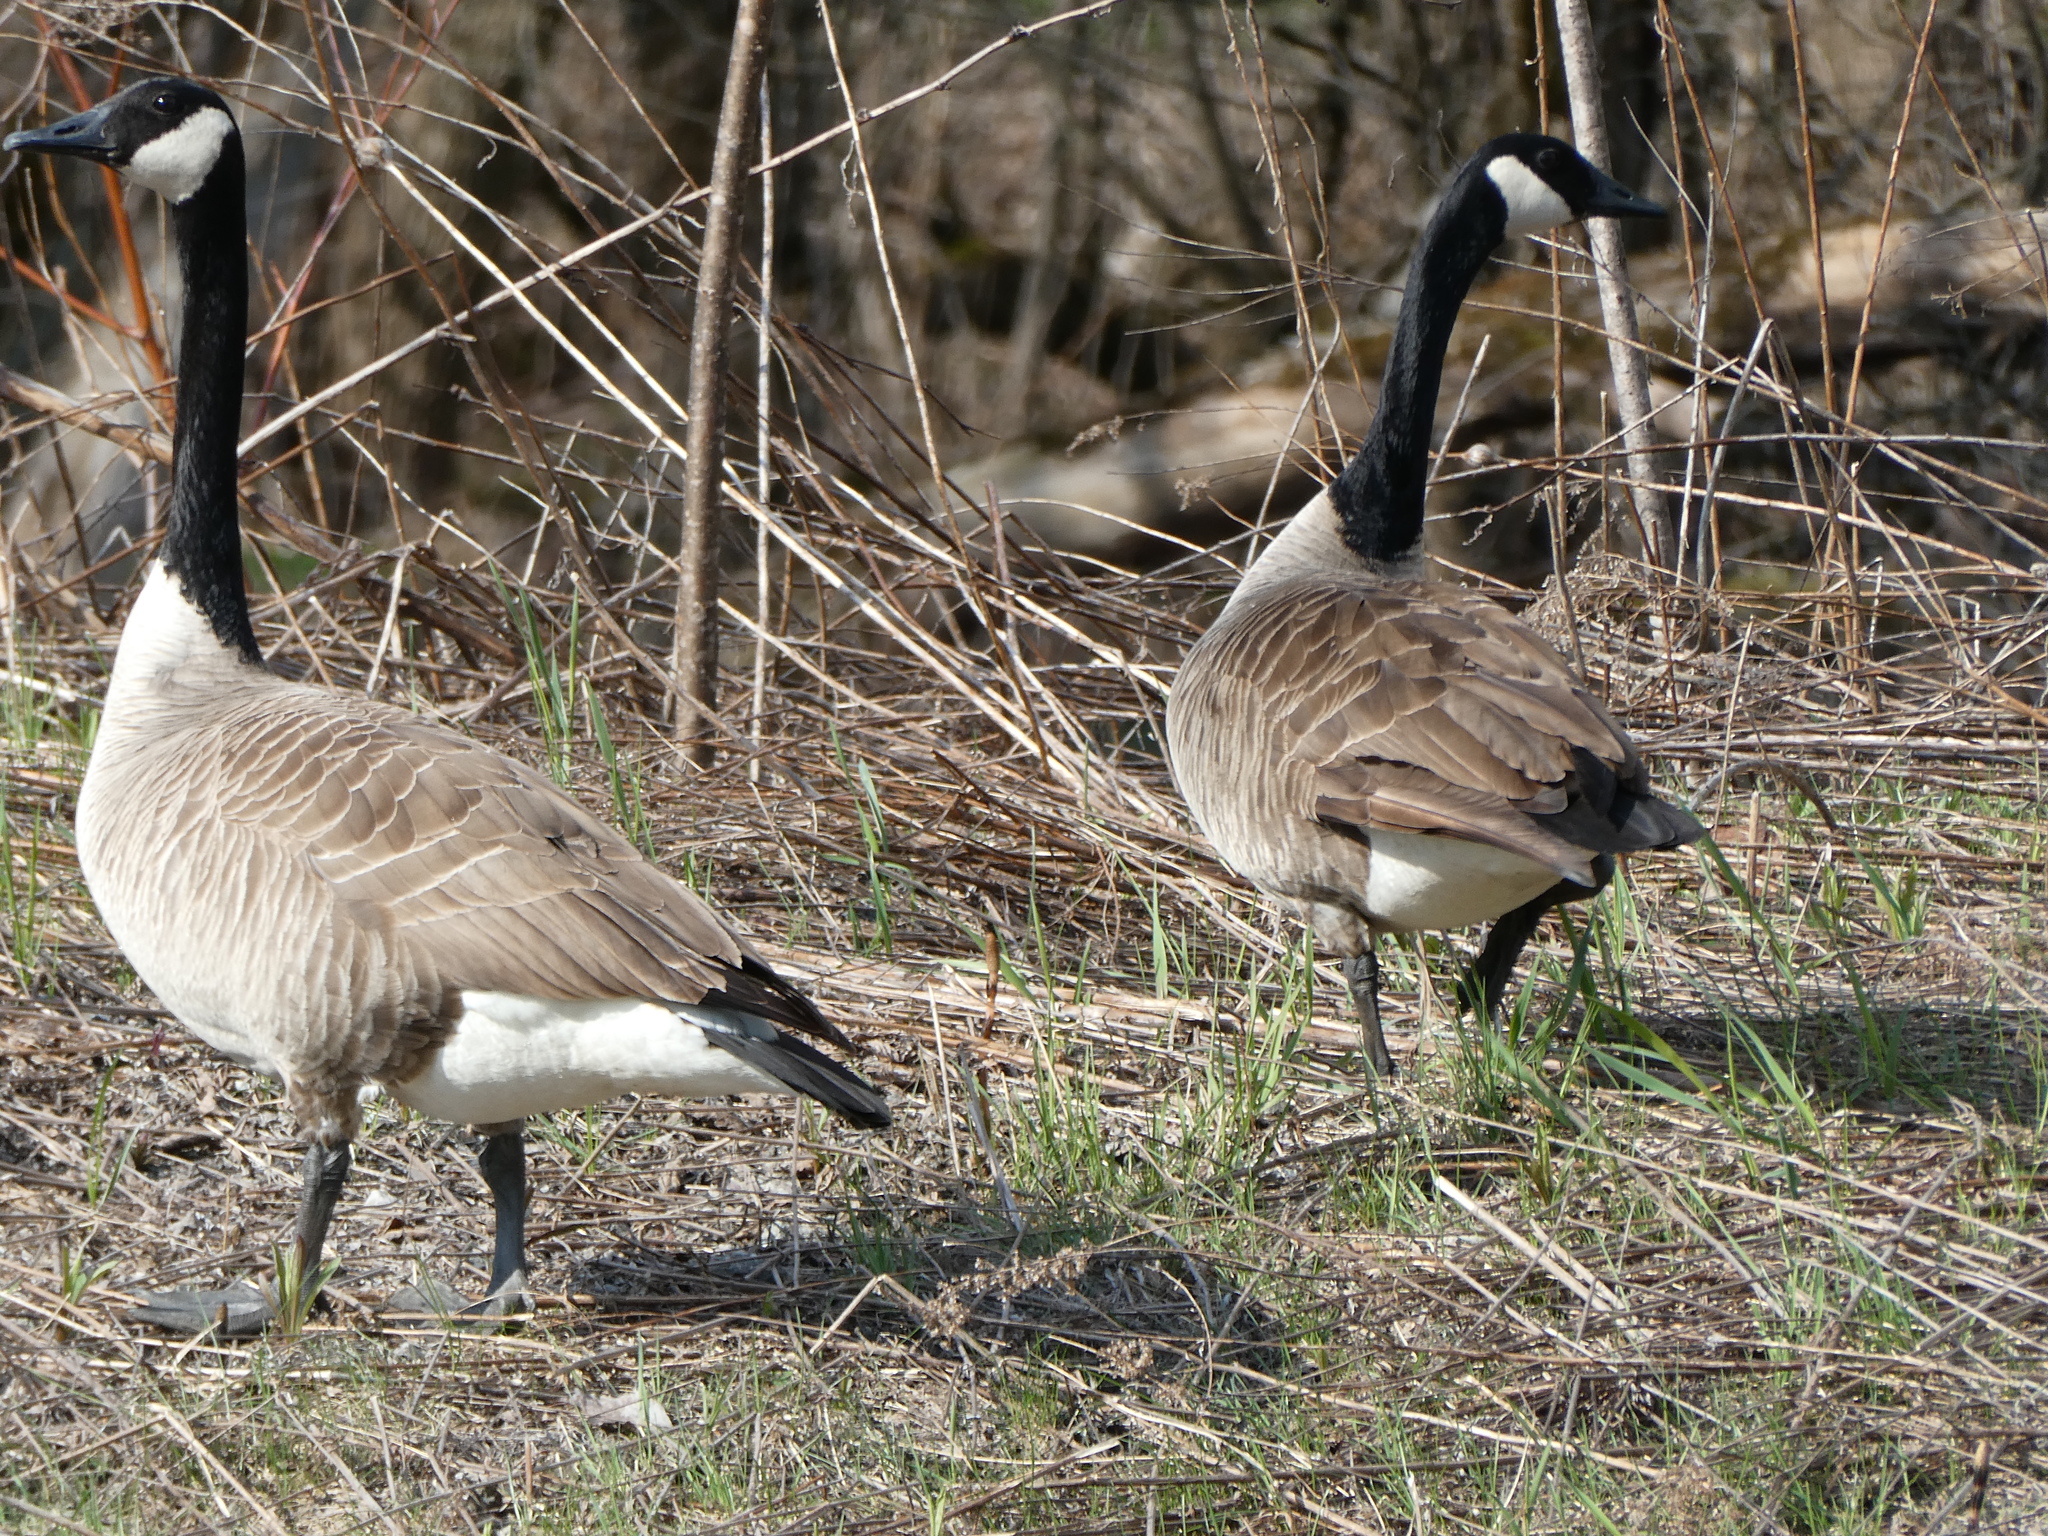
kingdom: Animalia
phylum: Chordata
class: Aves
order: Anseriformes
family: Anatidae
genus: Branta
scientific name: Branta canadensis
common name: Canada goose
